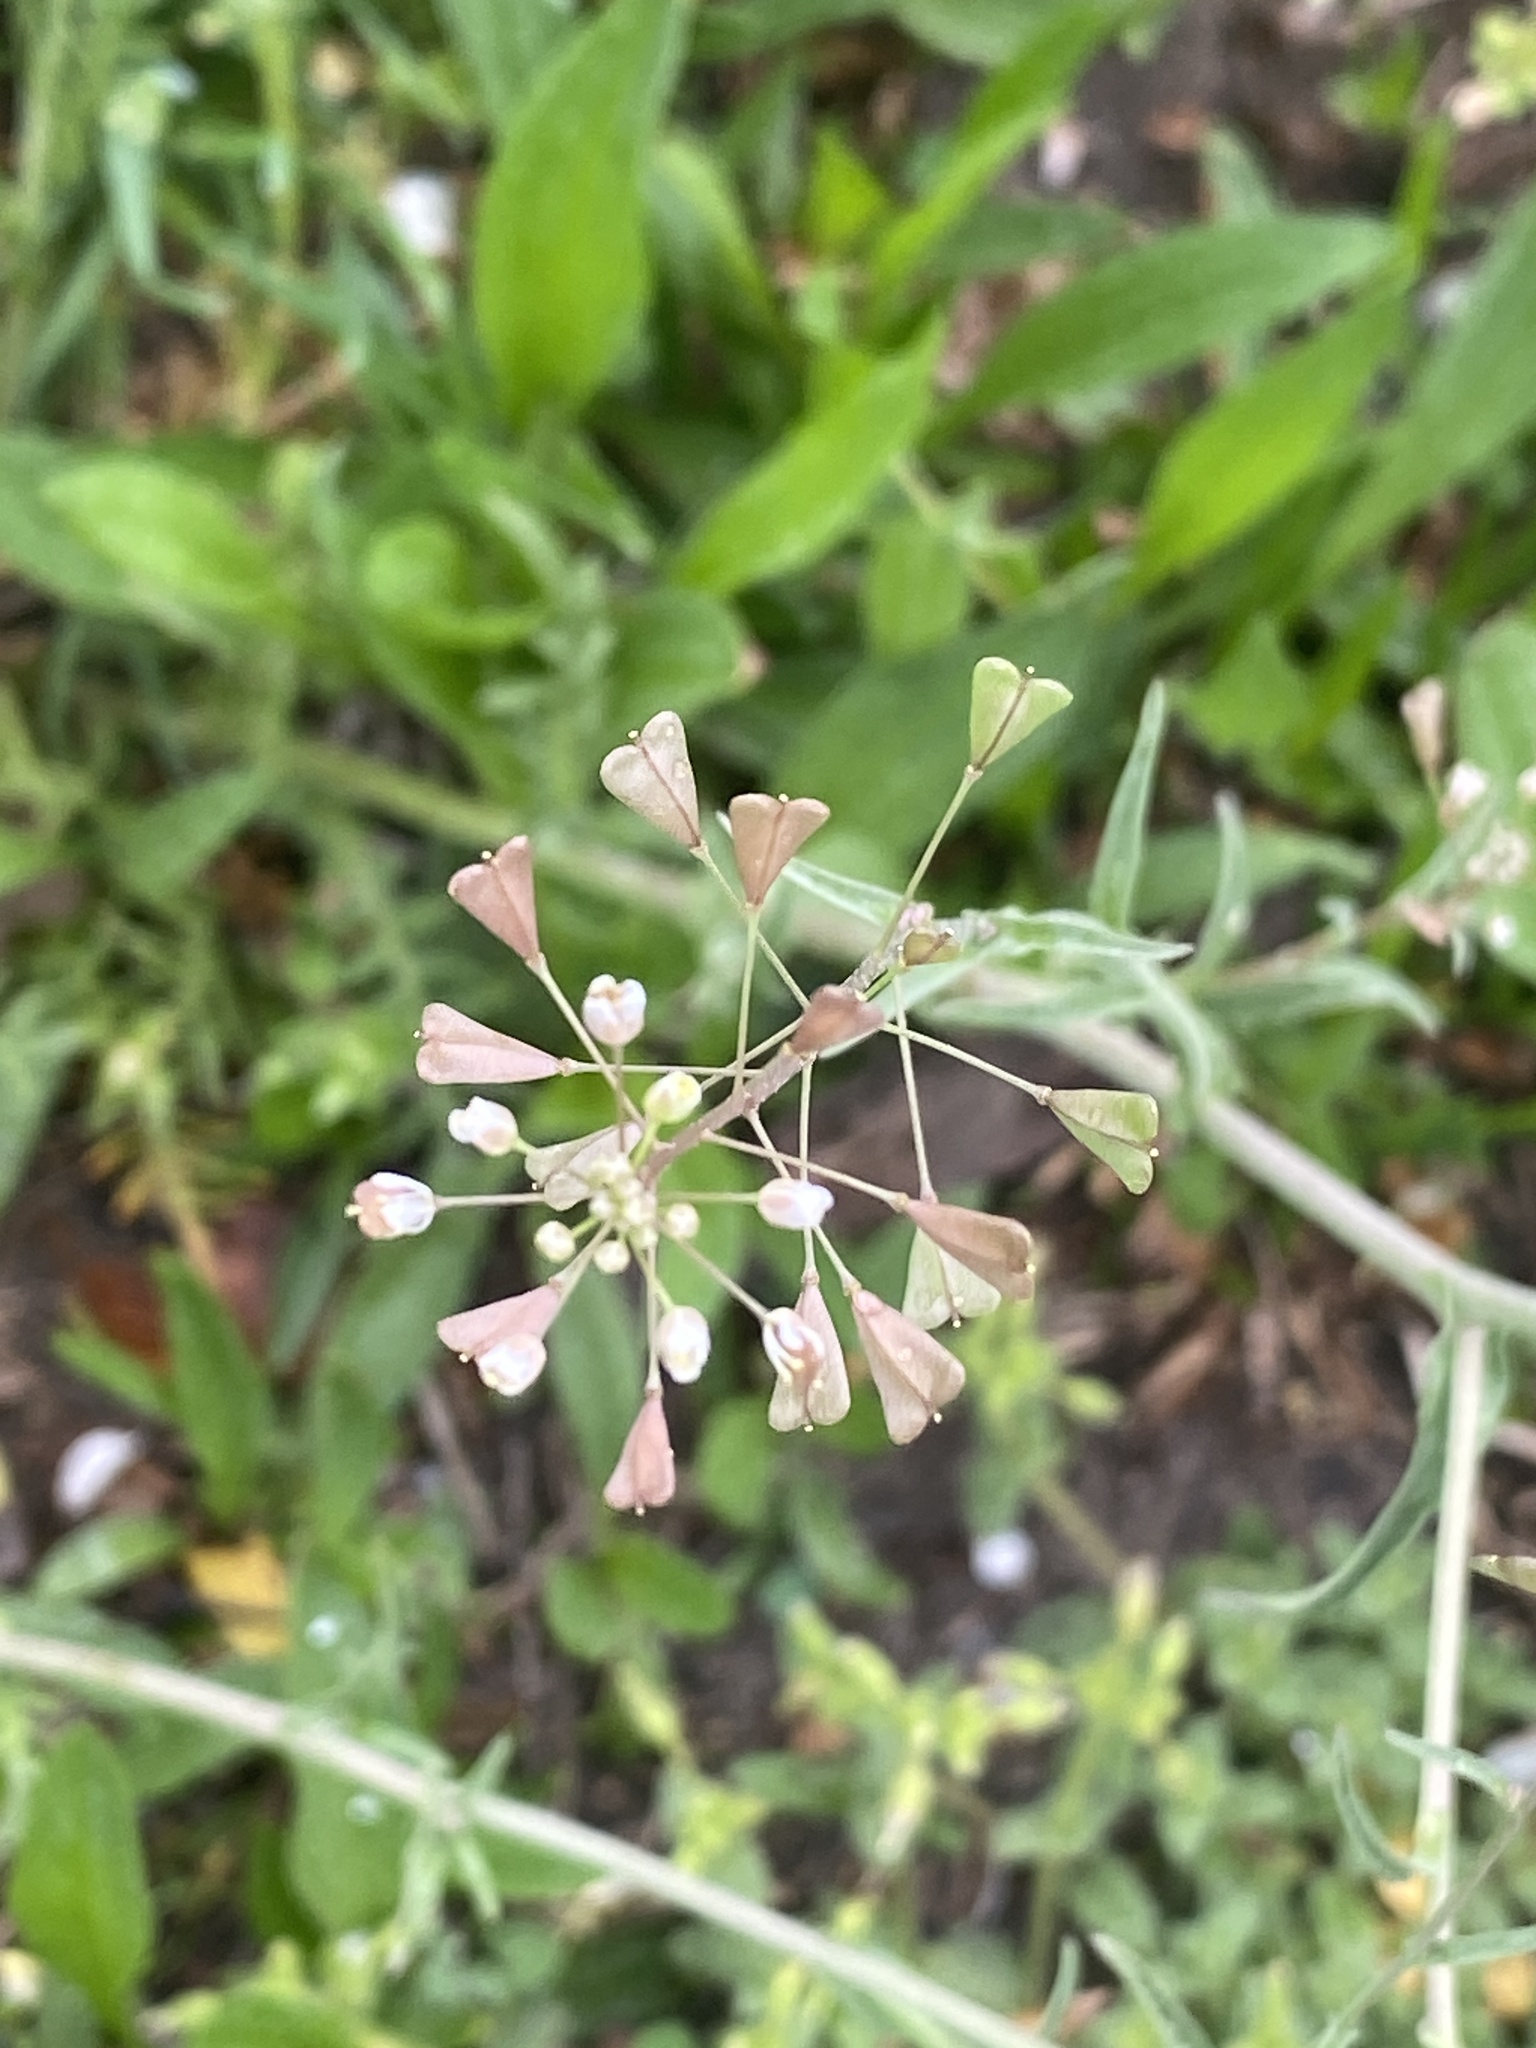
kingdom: Plantae
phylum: Tracheophyta
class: Magnoliopsida
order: Brassicales
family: Brassicaceae
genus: Capsella
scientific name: Capsella bursa-pastoris
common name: Shepherd's purse
